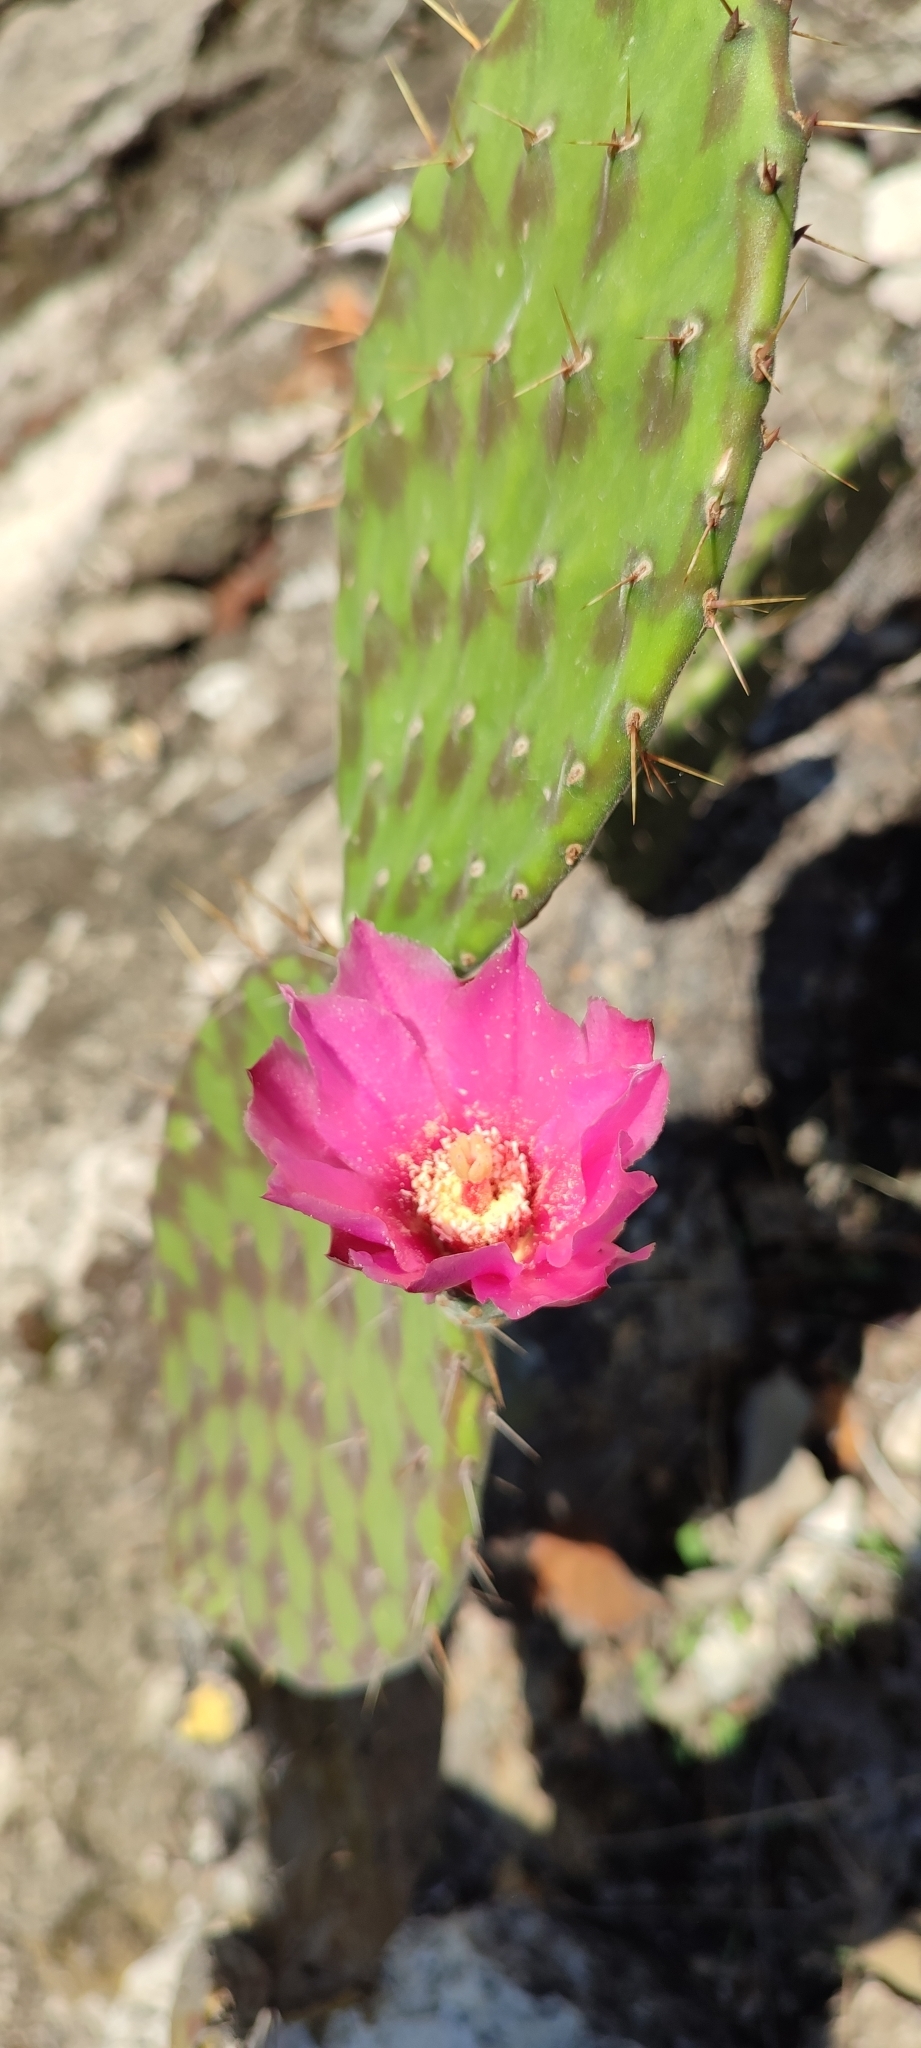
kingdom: Plantae
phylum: Tracheophyta
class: Magnoliopsida
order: Caryophyllales
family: Cactaceae
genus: Opuntia
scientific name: Opuntia depressa
